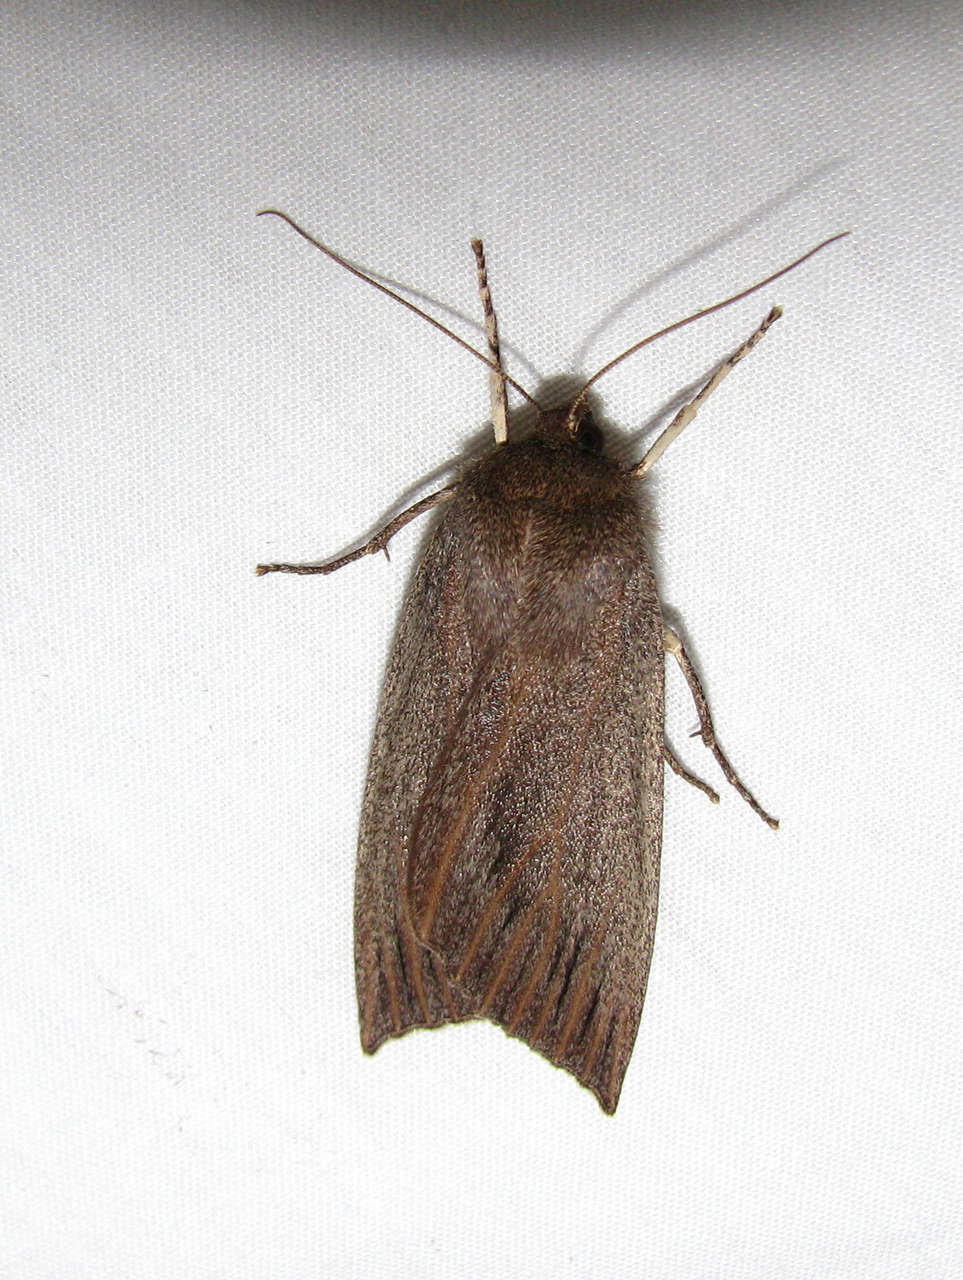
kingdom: Animalia
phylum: Arthropoda
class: Insecta
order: Lepidoptera
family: Geometridae
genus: Palleopa
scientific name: Palleopa innotata
